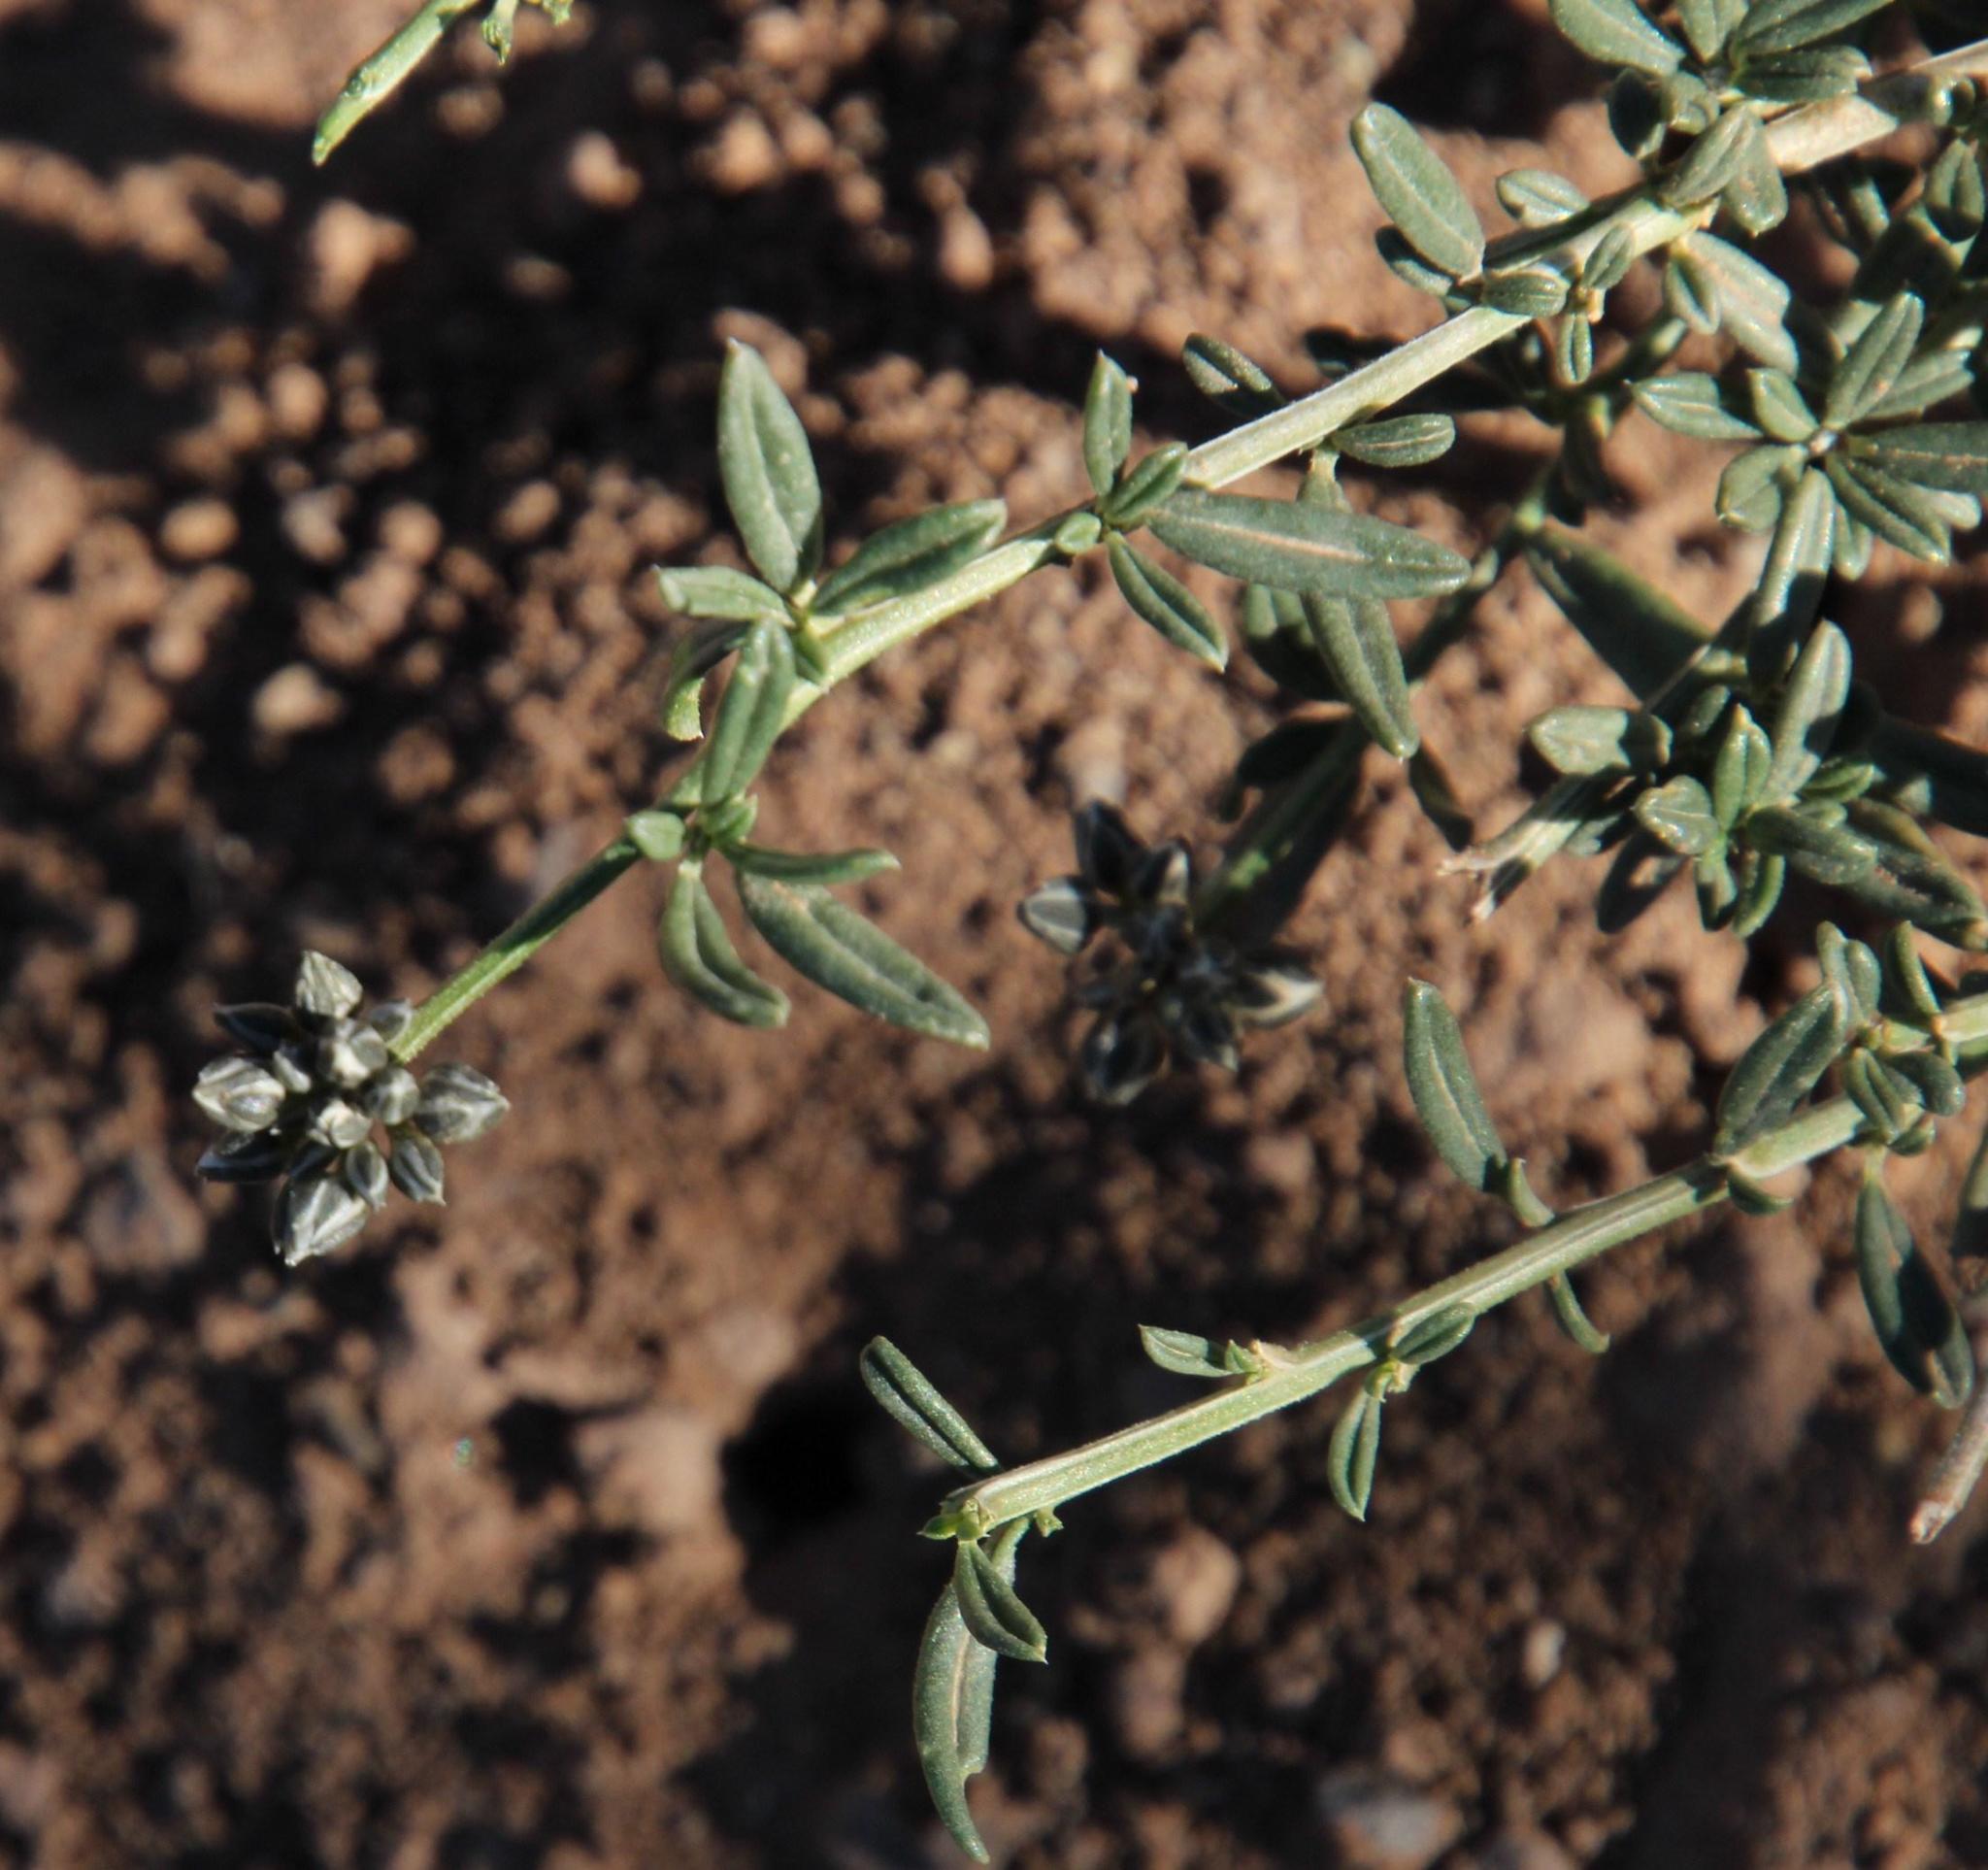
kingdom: Plantae
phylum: Tracheophyta
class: Magnoliopsida
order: Caryophyllales
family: Limeaceae
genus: Limeum
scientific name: Limeum aethiopicum
